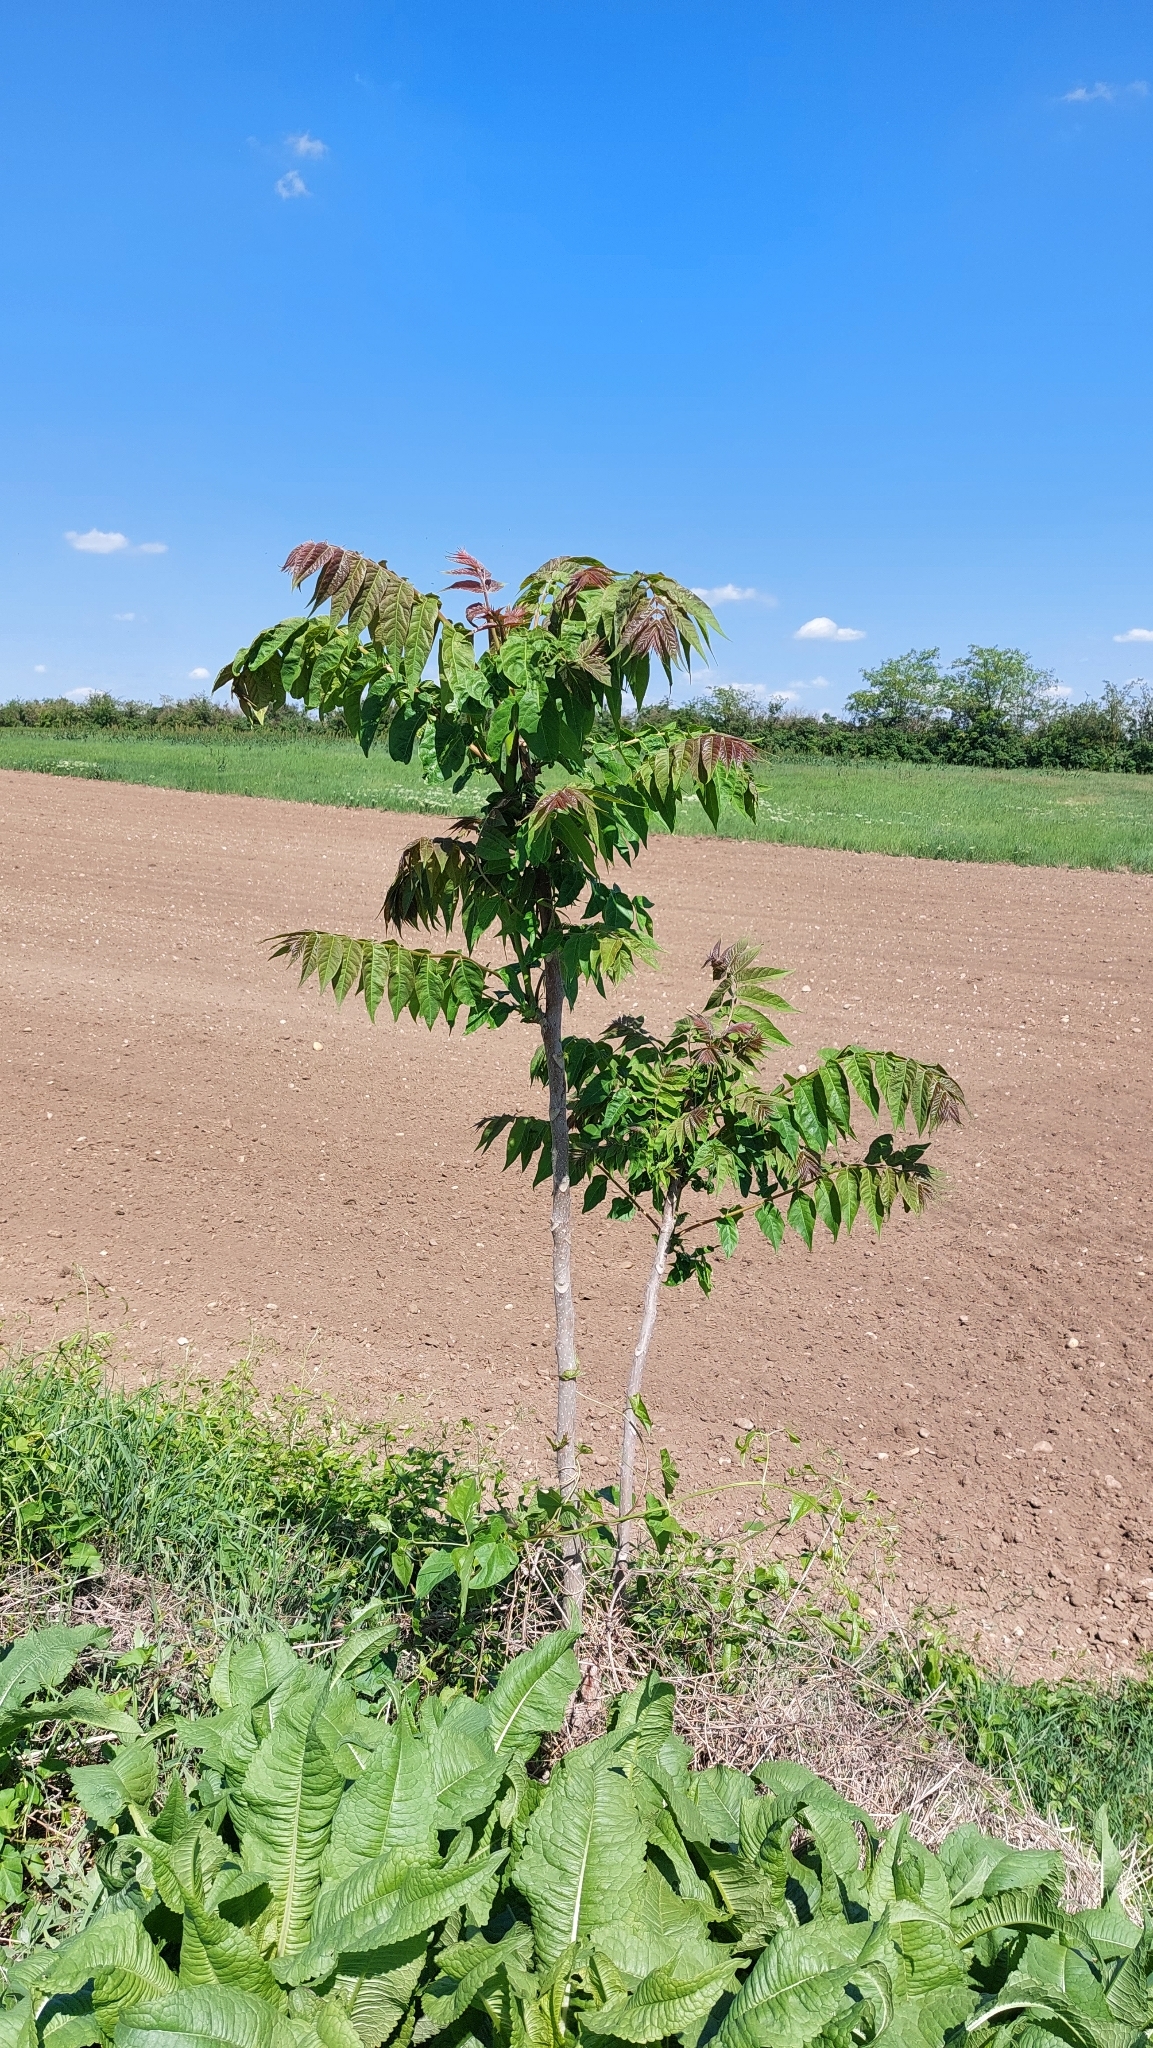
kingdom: Plantae
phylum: Tracheophyta
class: Magnoliopsida
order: Sapindales
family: Simaroubaceae
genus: Ailanthus
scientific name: Ailanthus altissima
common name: Tree-of-heaven
